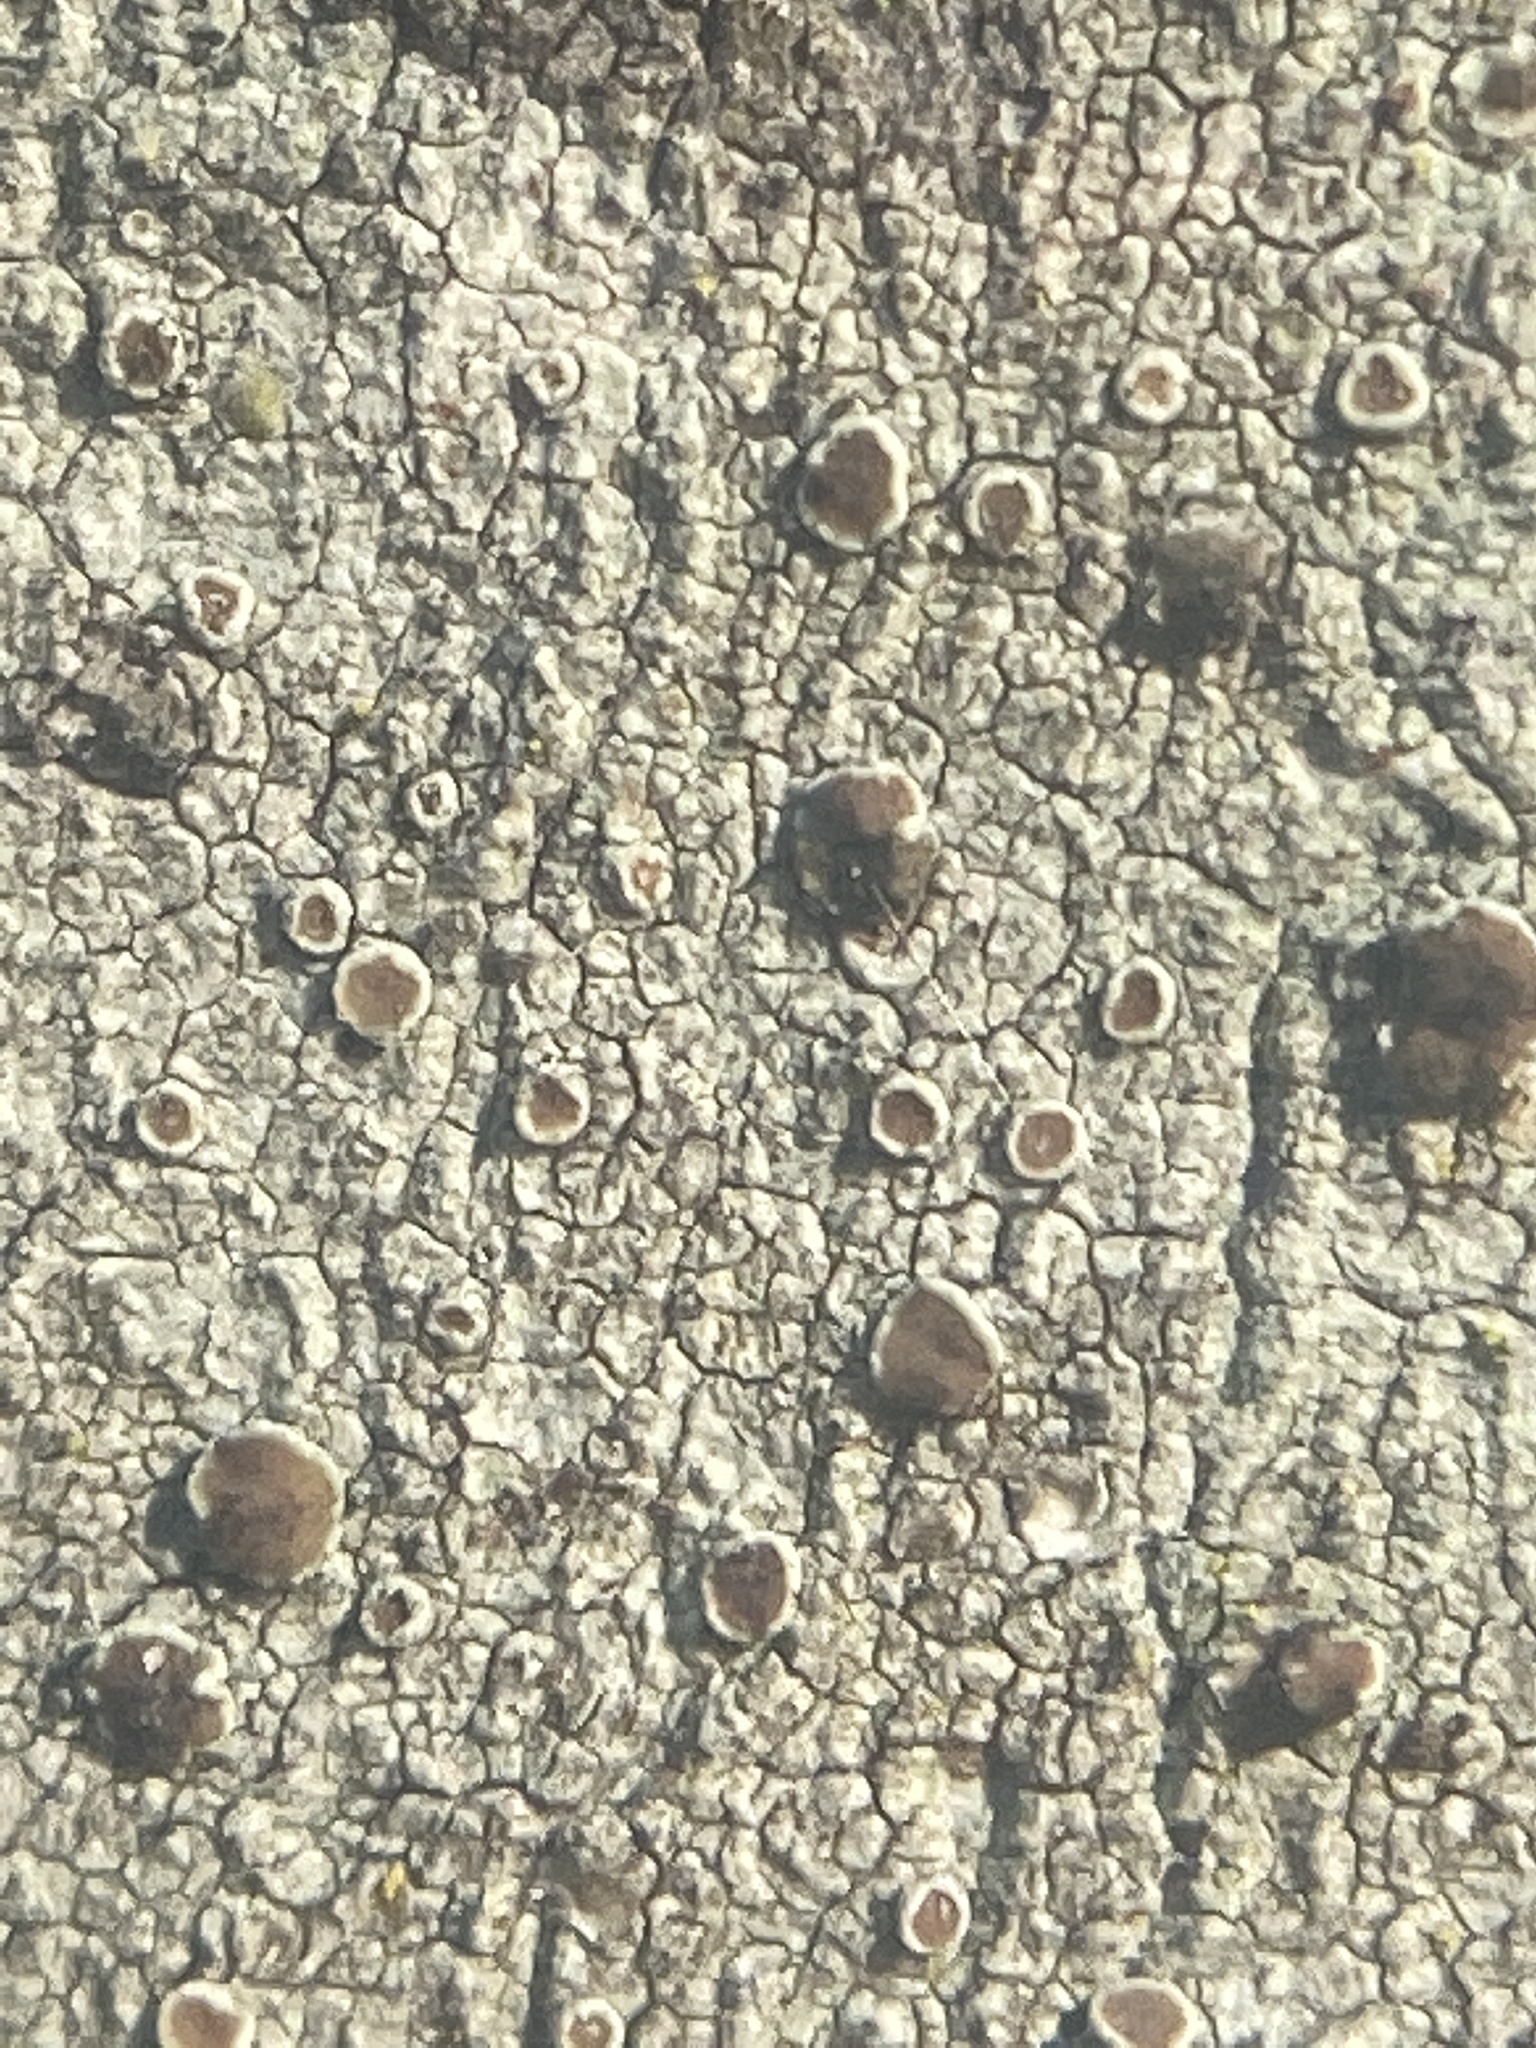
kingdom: Fungi
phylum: Ascomycota
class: Lecanoromycetes
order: Lecanorales
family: Lecanoraceae
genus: Lecanora
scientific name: Lecanora hybocarpa
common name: Bumpy rim-lichen
